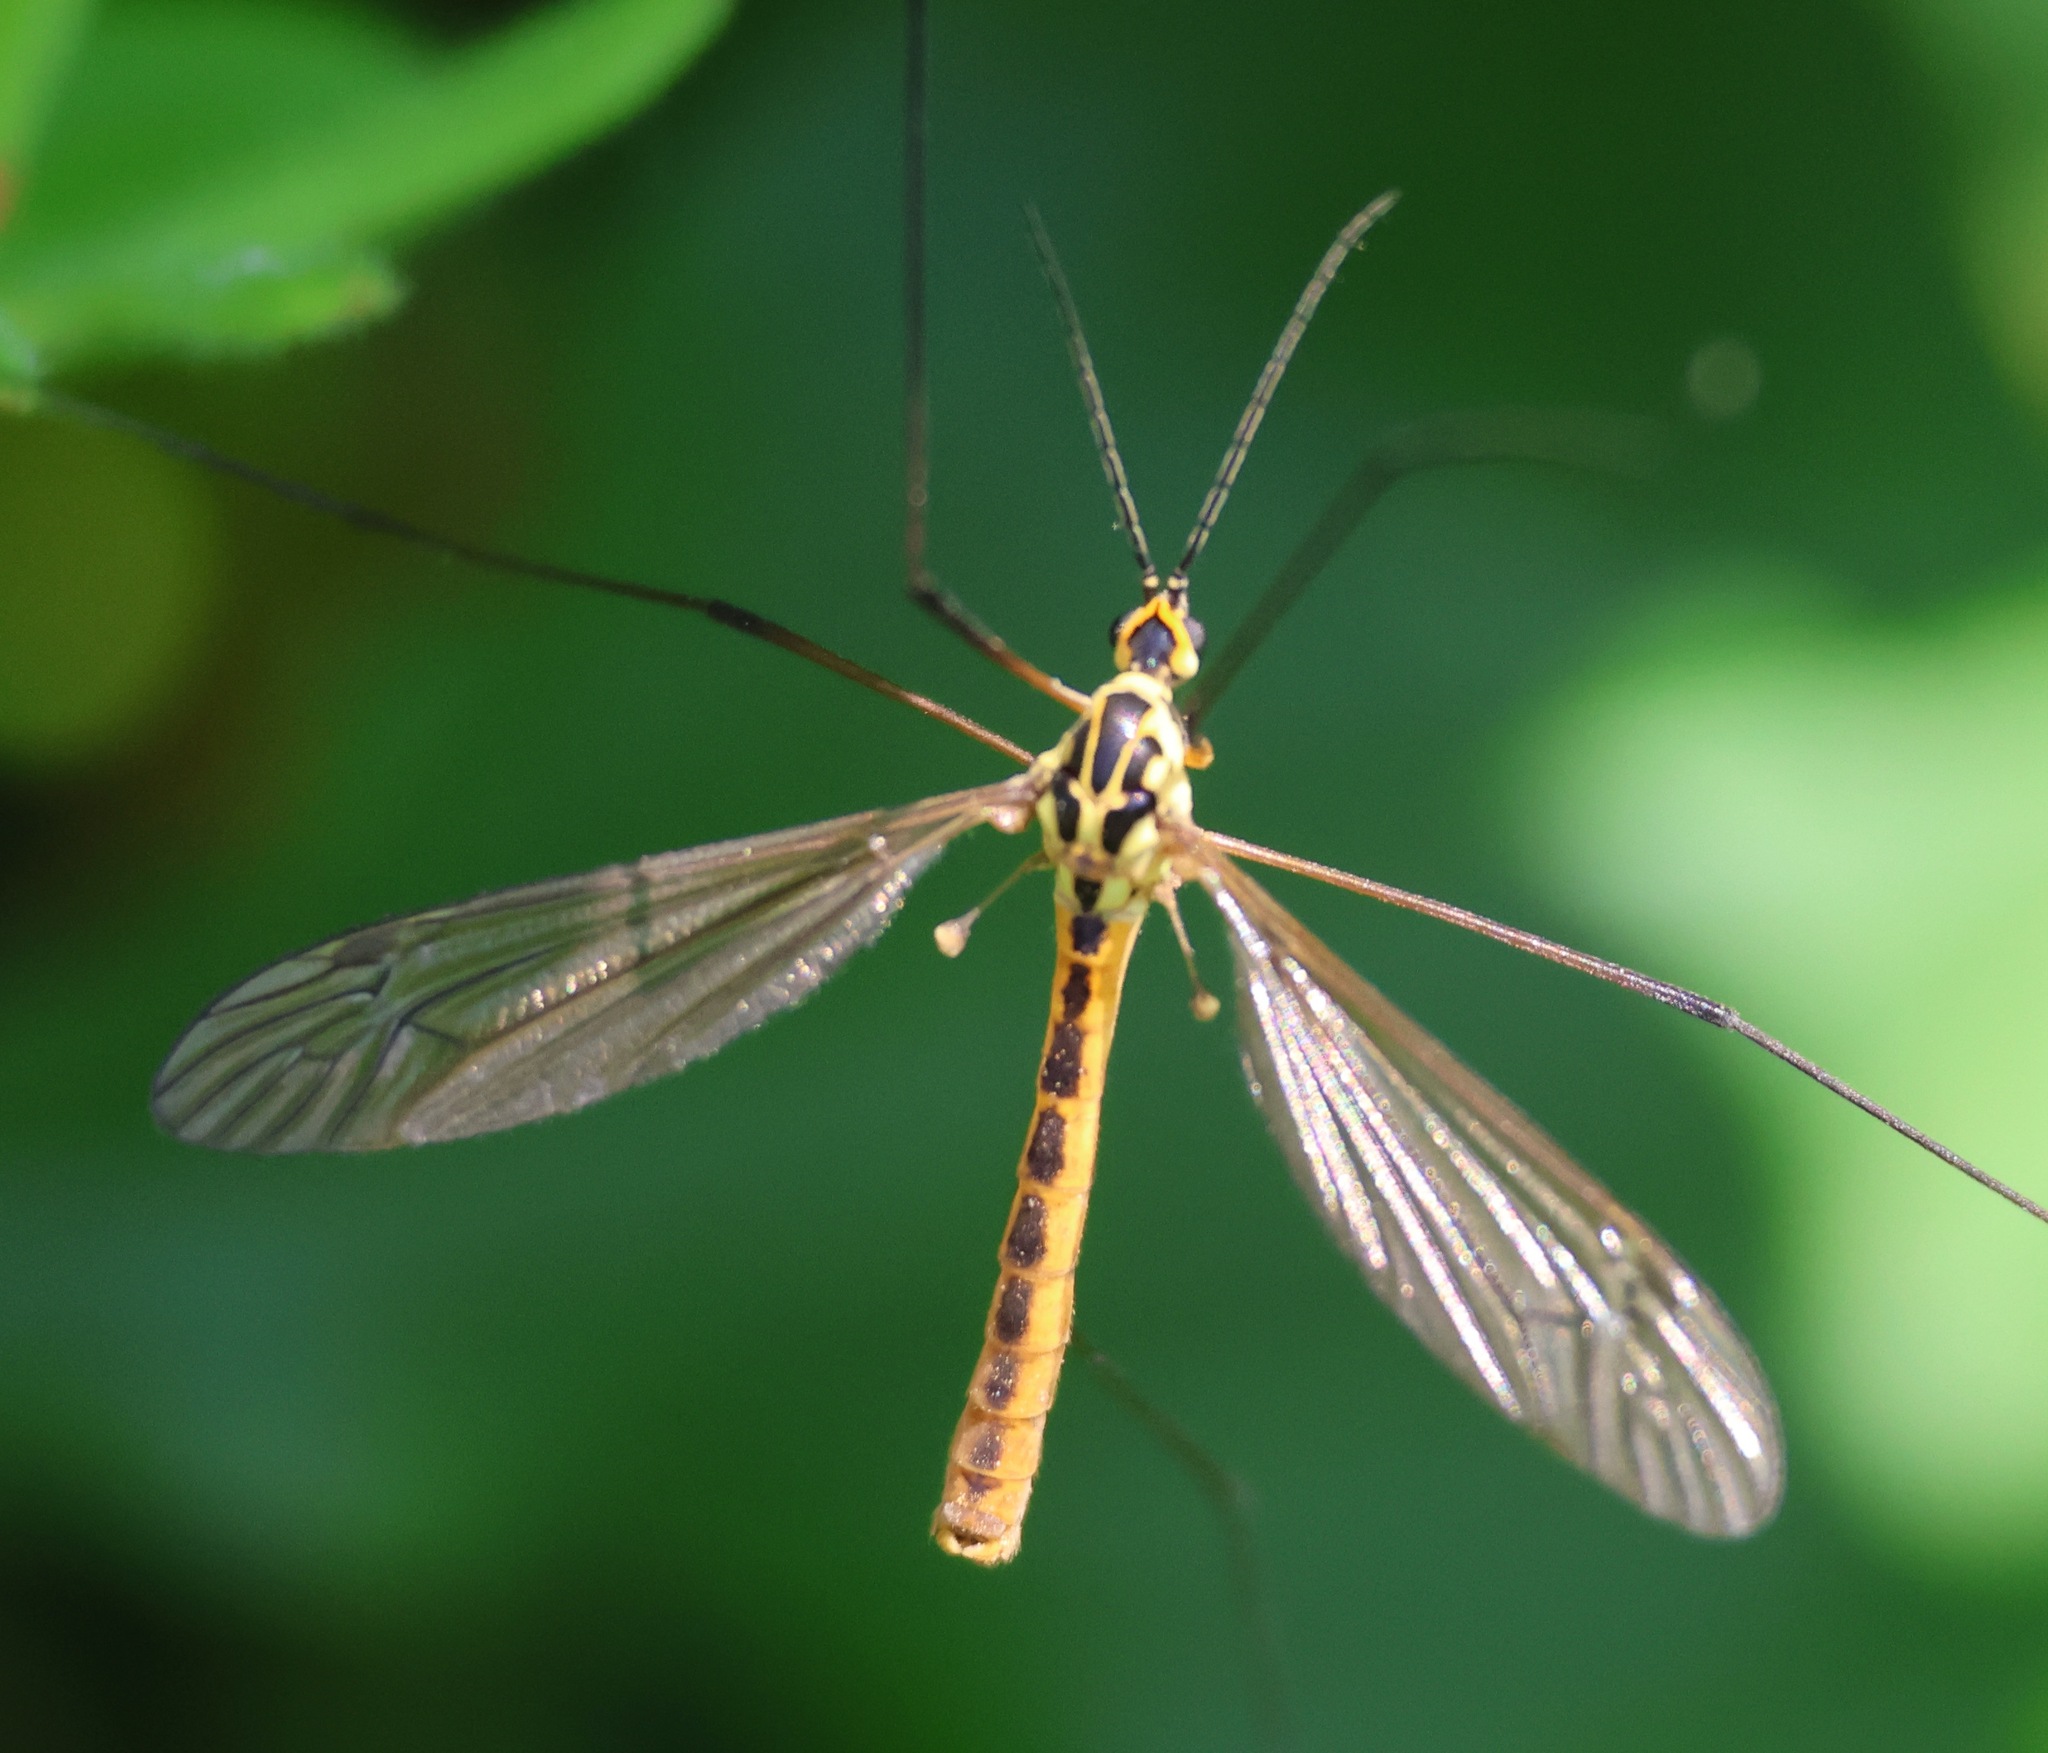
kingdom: Animalia
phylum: Arthropoda
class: Insecta
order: Diptera
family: Tipulidae
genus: Nephrotoma
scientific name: Nephrotoma flavescens
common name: Tiger cranefly
